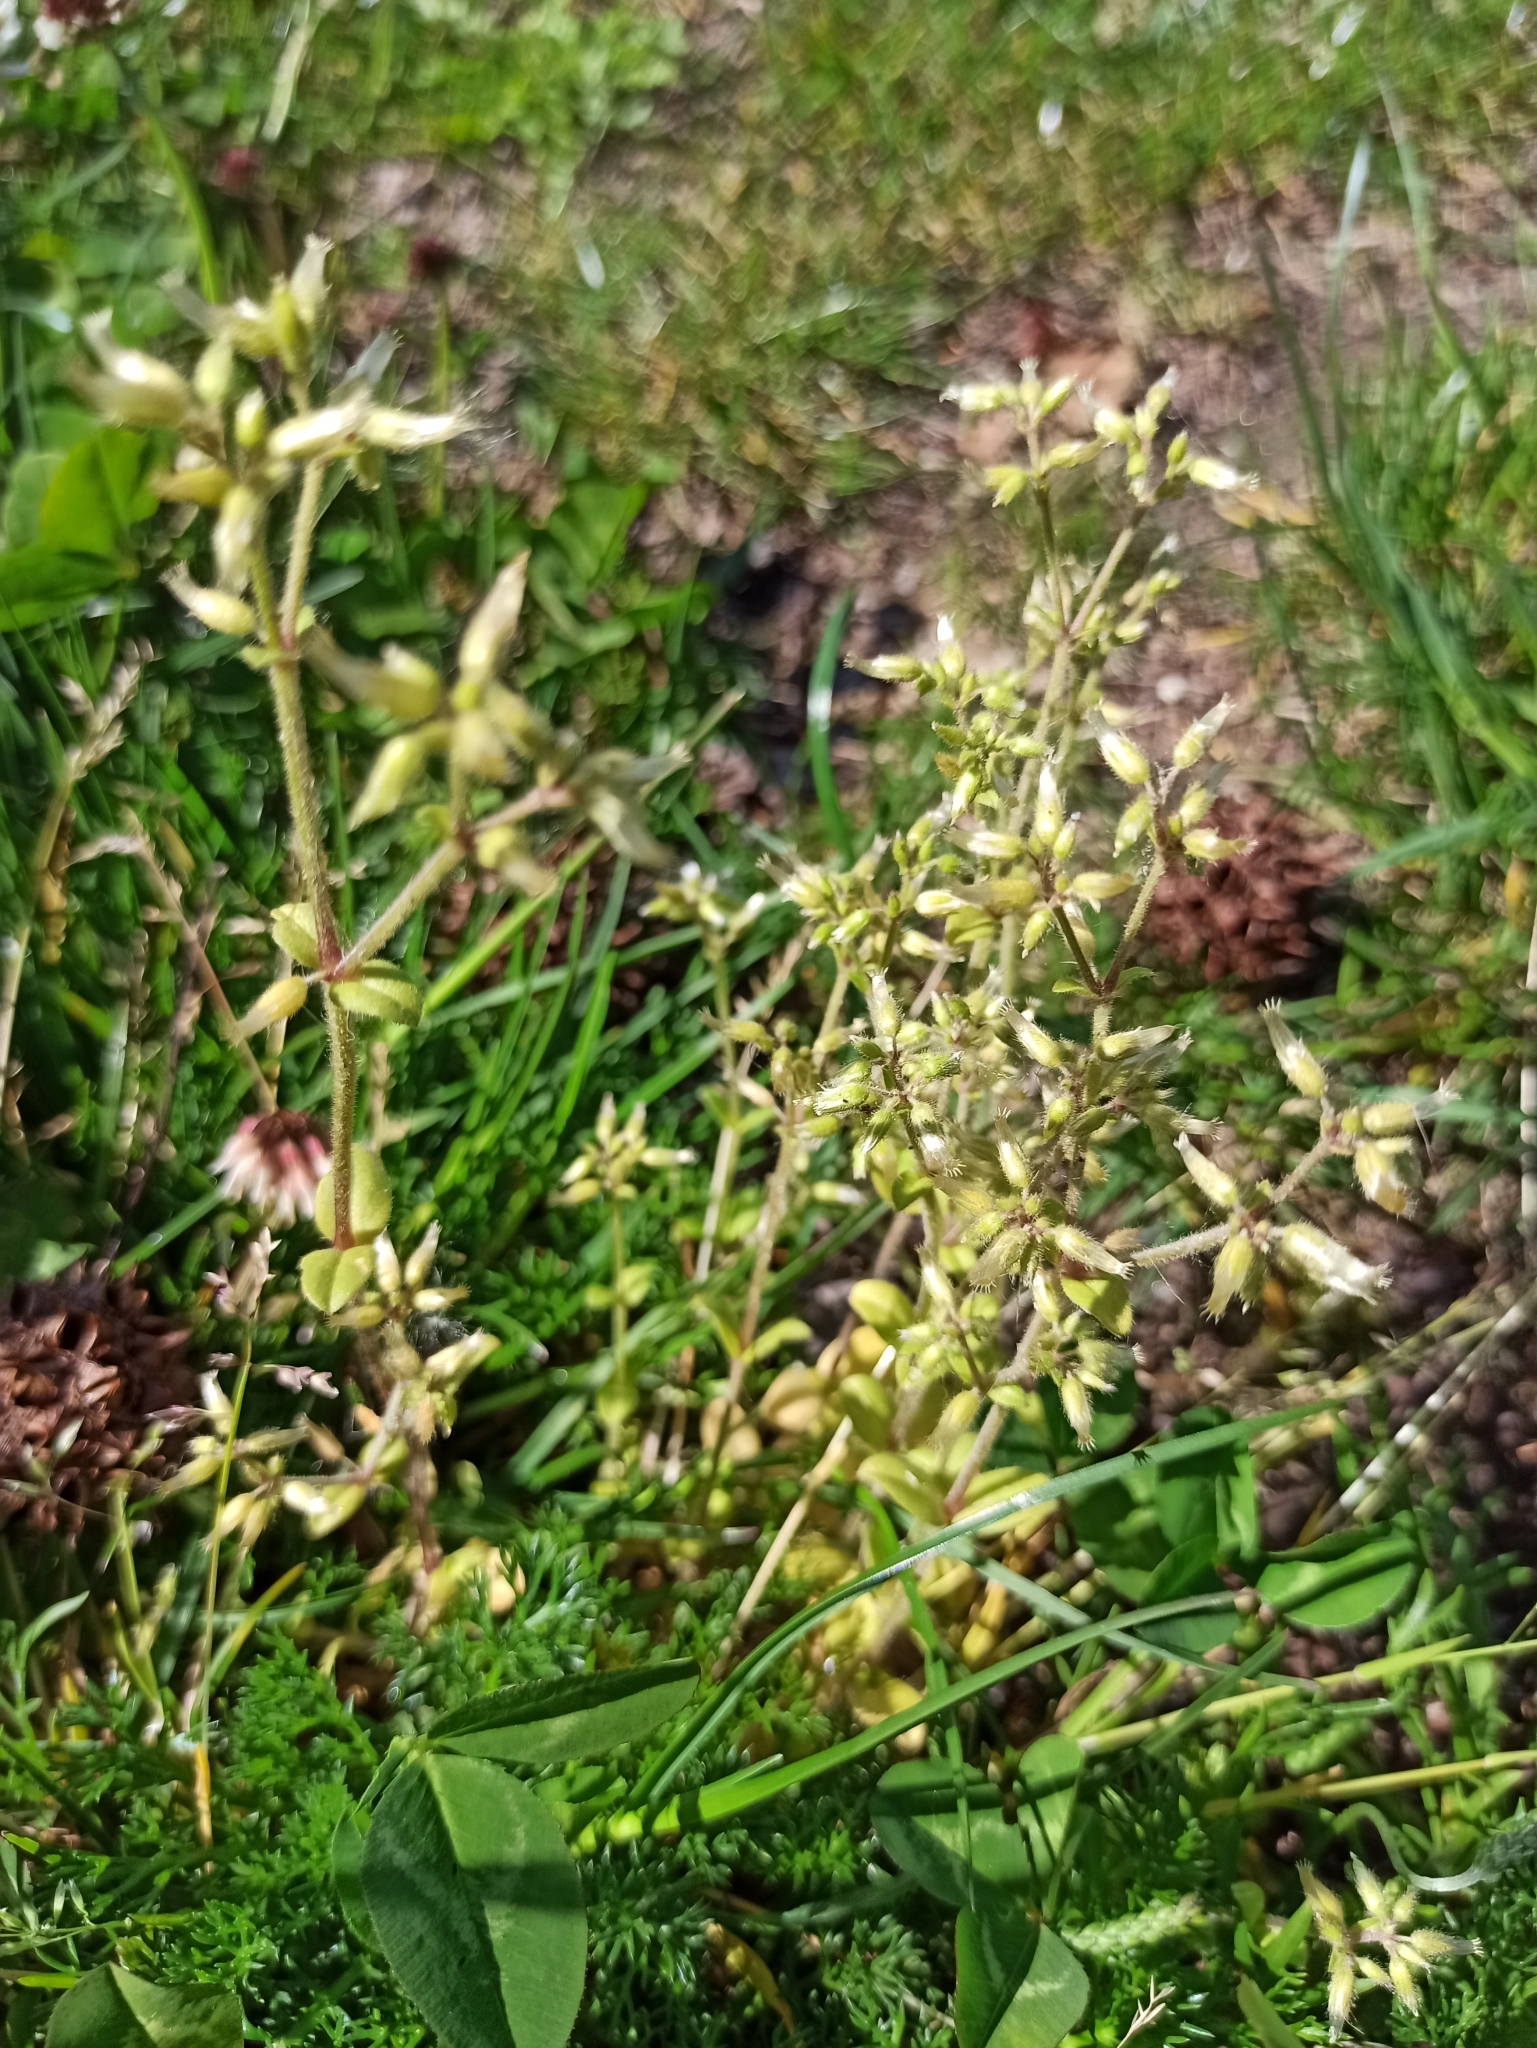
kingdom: Plantae
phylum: Tracheophyta
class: Magnoliopsida
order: Caryophyllales
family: Caryophyllaceae
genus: Cerastium
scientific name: Cerastium glomeratum
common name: Sticky chickweed
